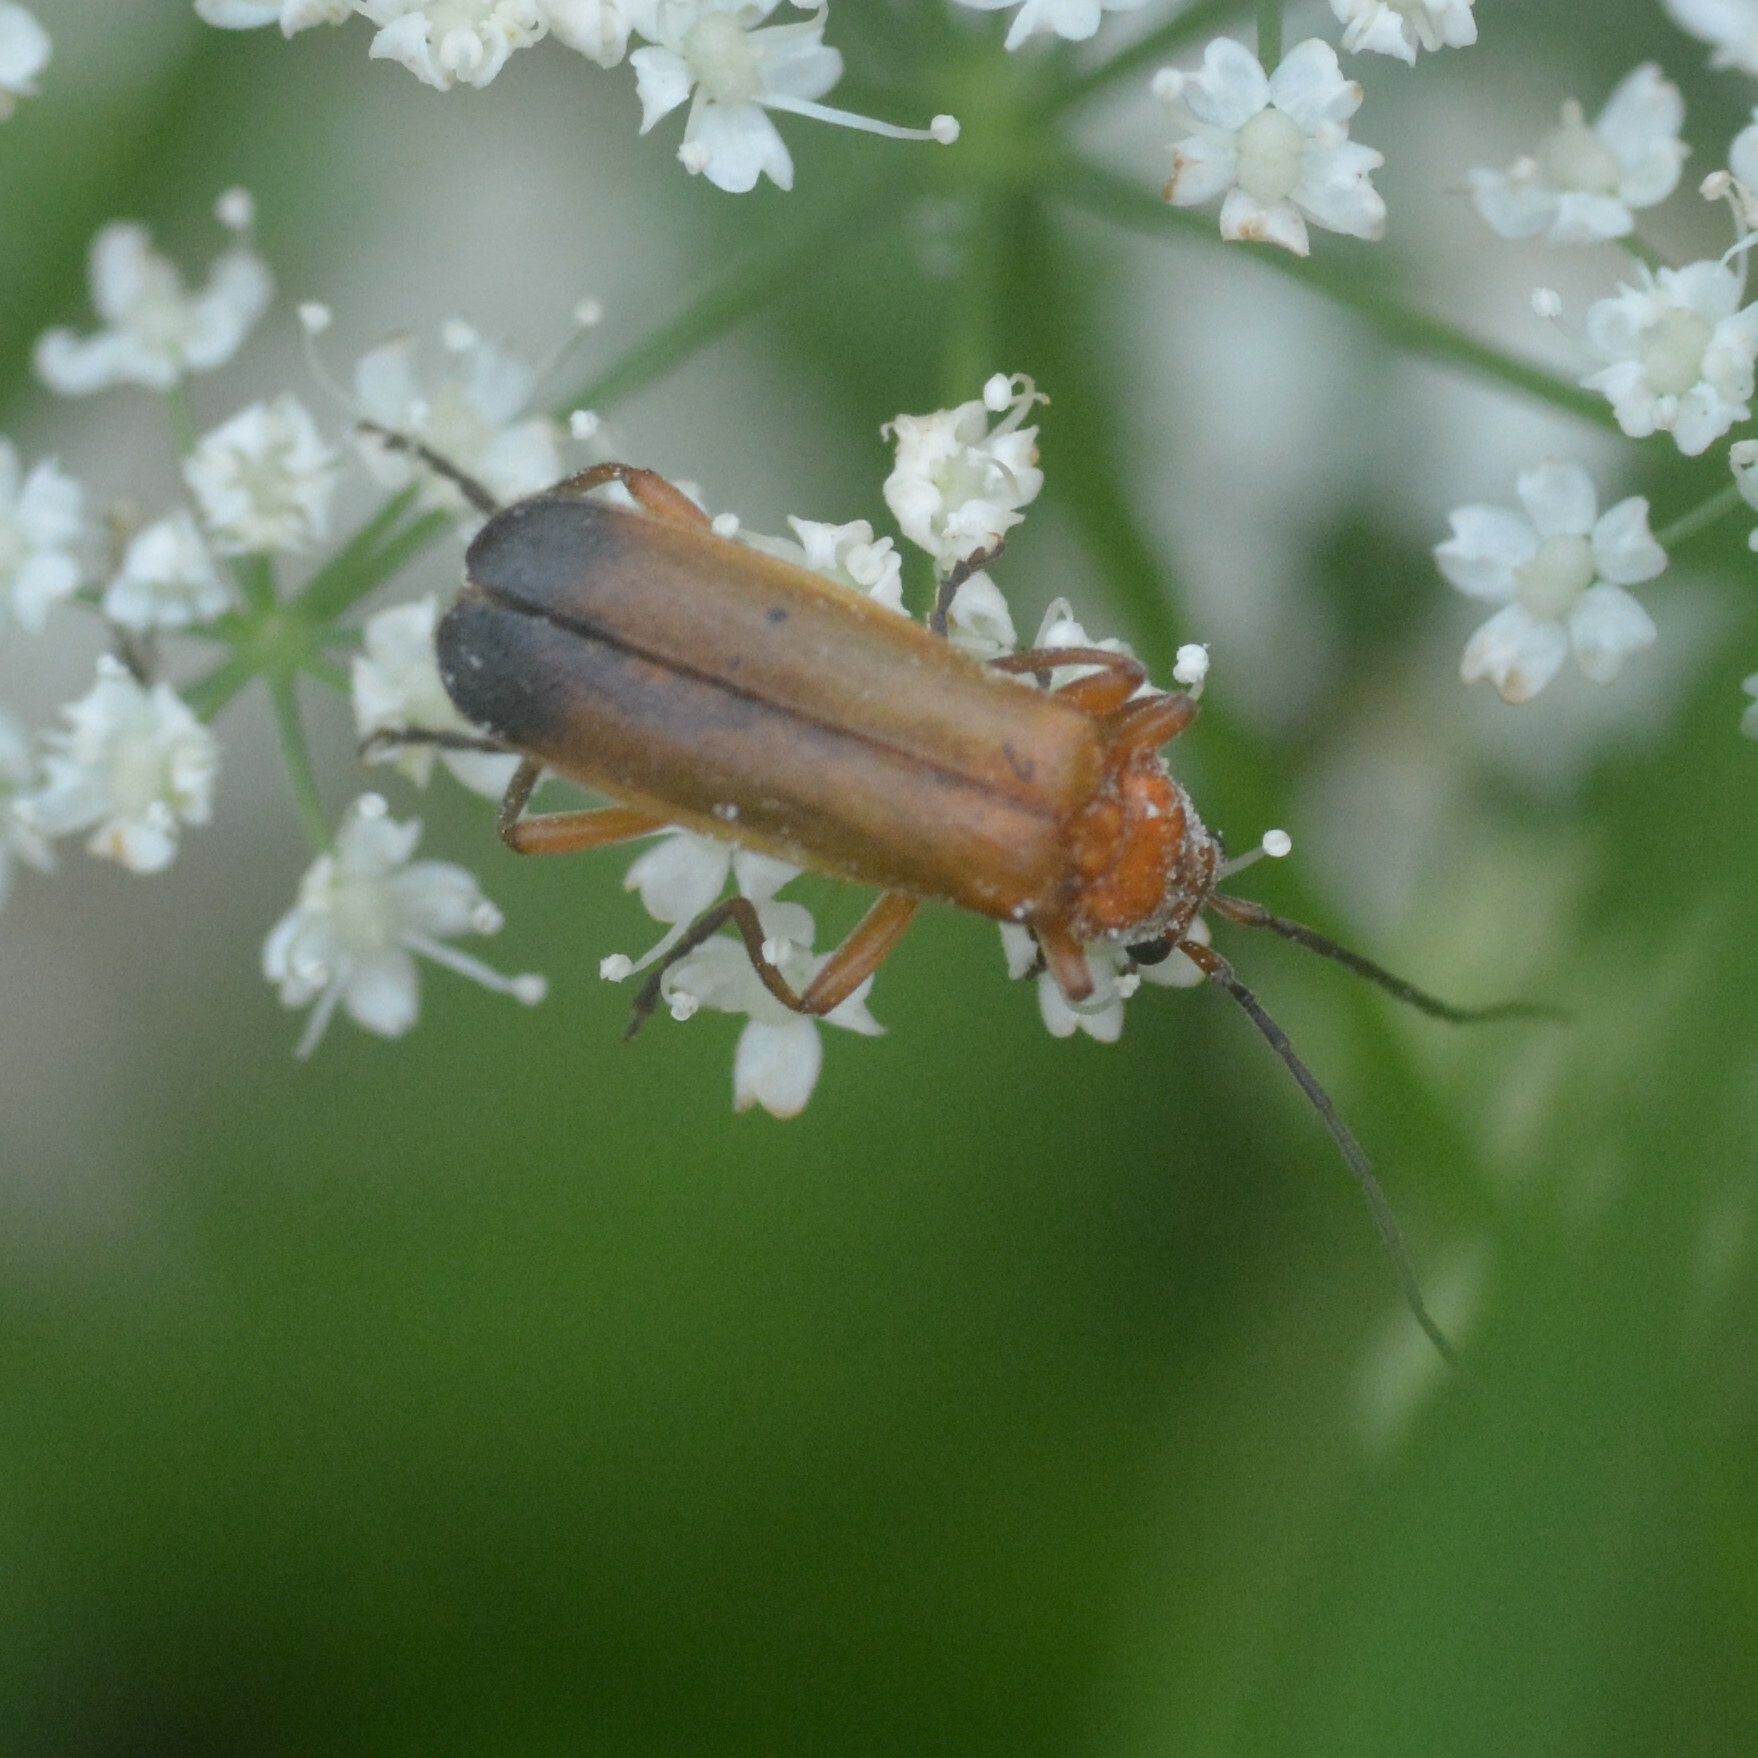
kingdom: Animalia
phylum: Arthropoda
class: Insecta
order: Coleoptera
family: Cantharidae
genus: Rhagonycha
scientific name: Rhagonycha fulva
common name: Common red soldier beetle
